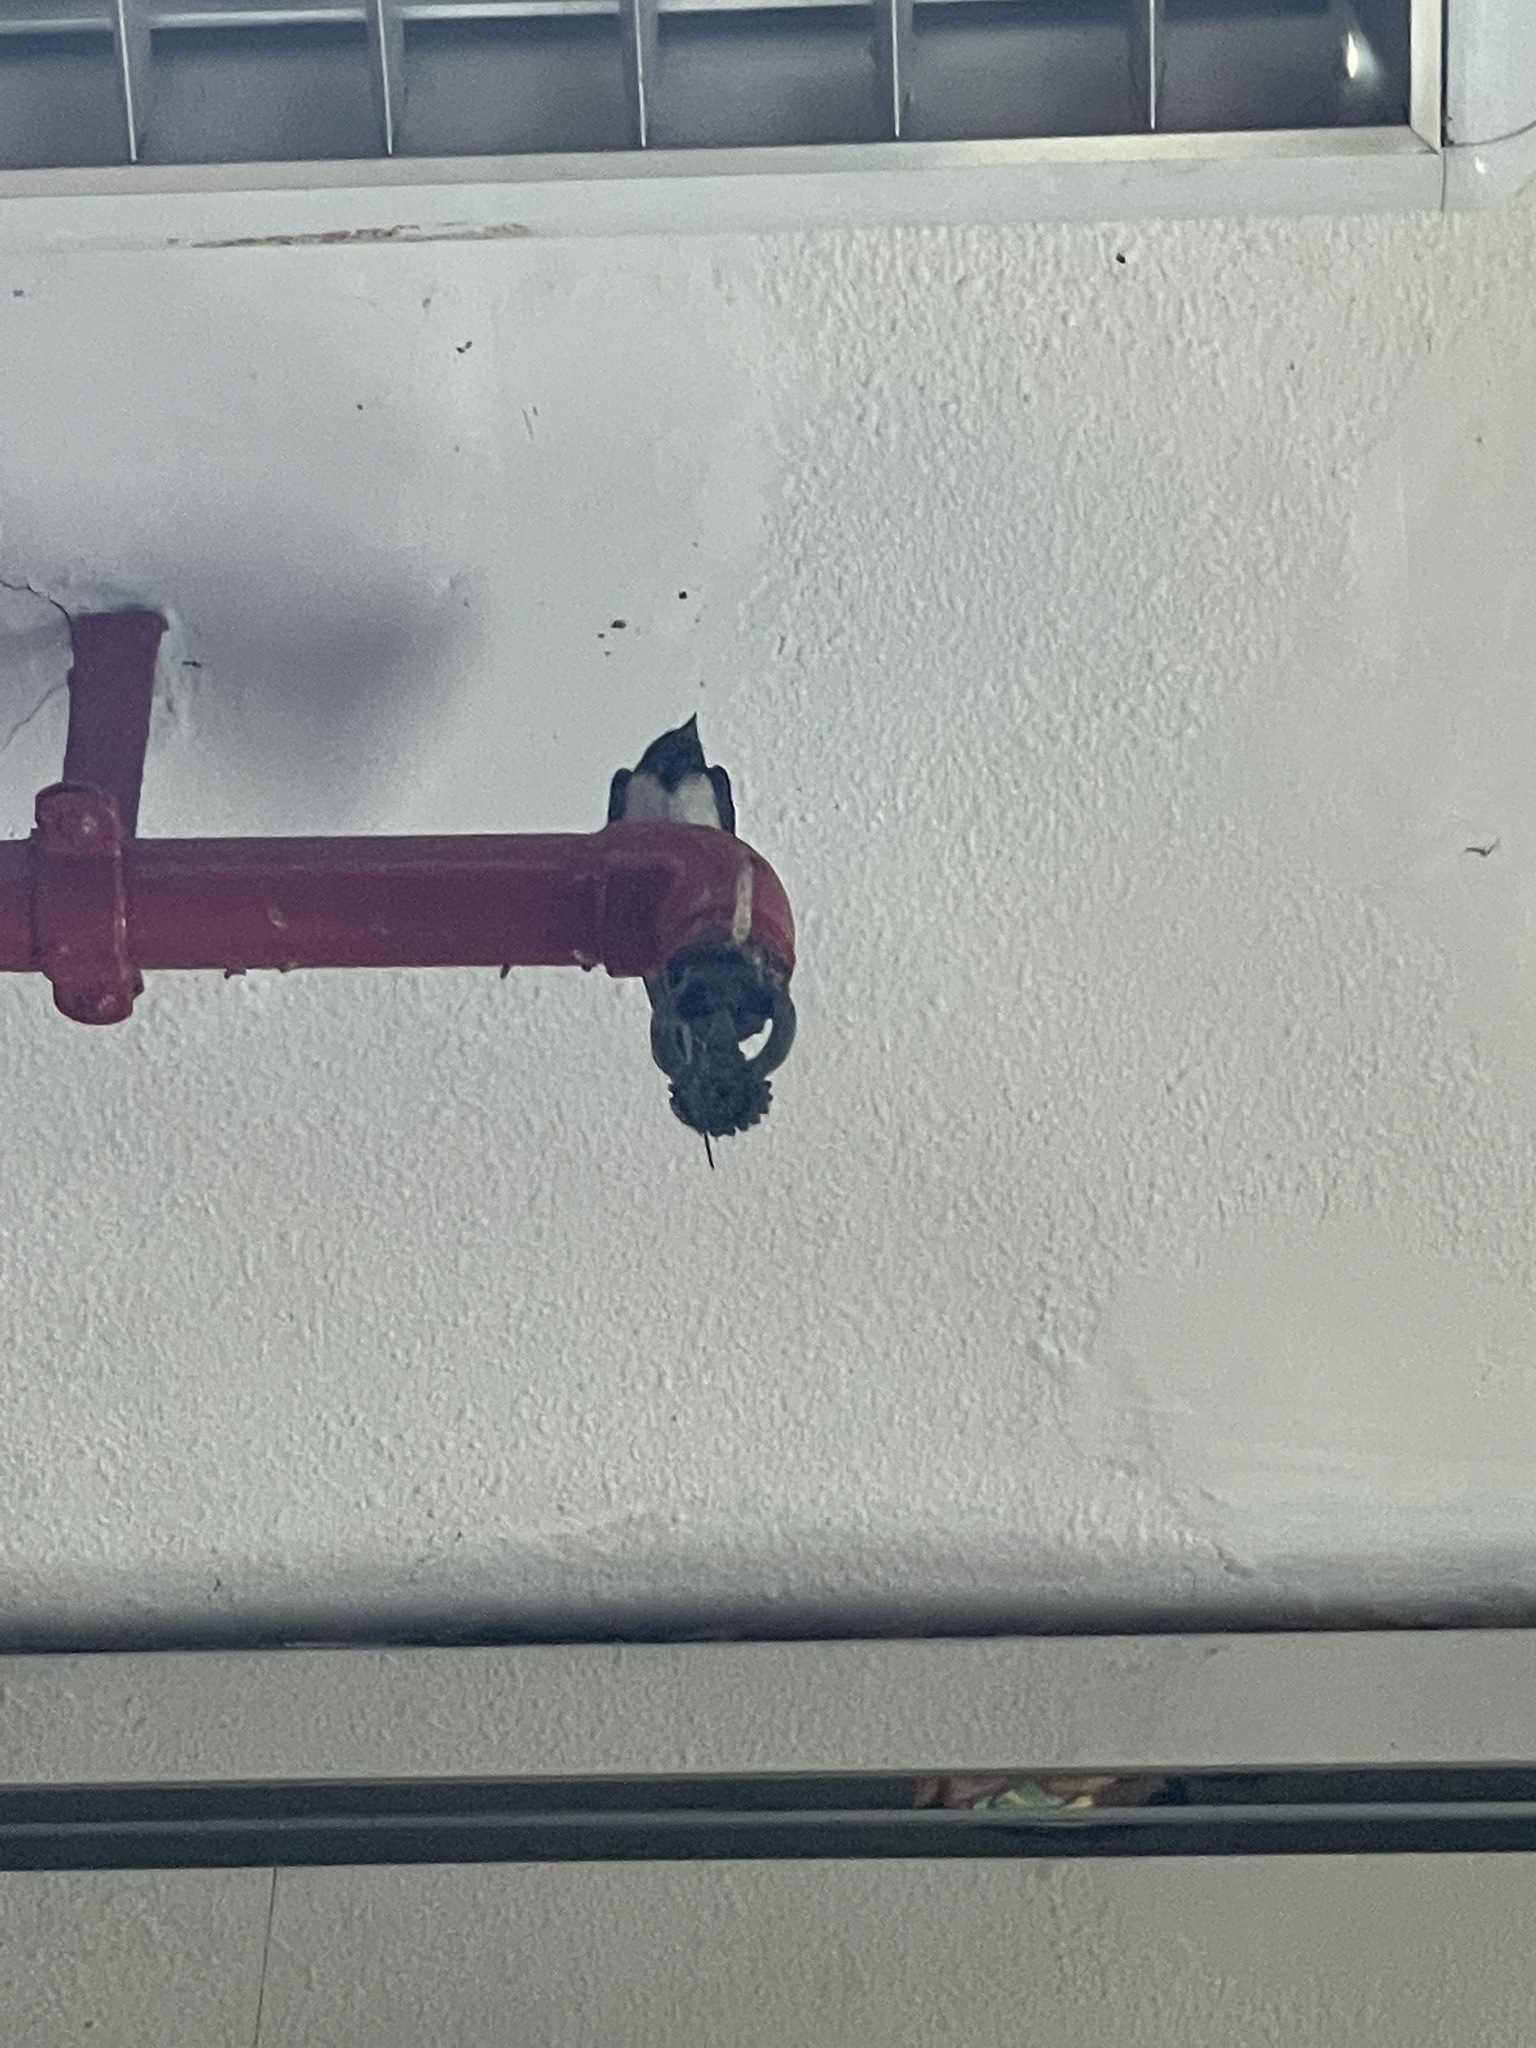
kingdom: Animalia
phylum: Chordata
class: Aves
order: Passeriformes
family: Hirundinidae
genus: Hirundo
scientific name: Hirundo rustica
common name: Barn swallow
